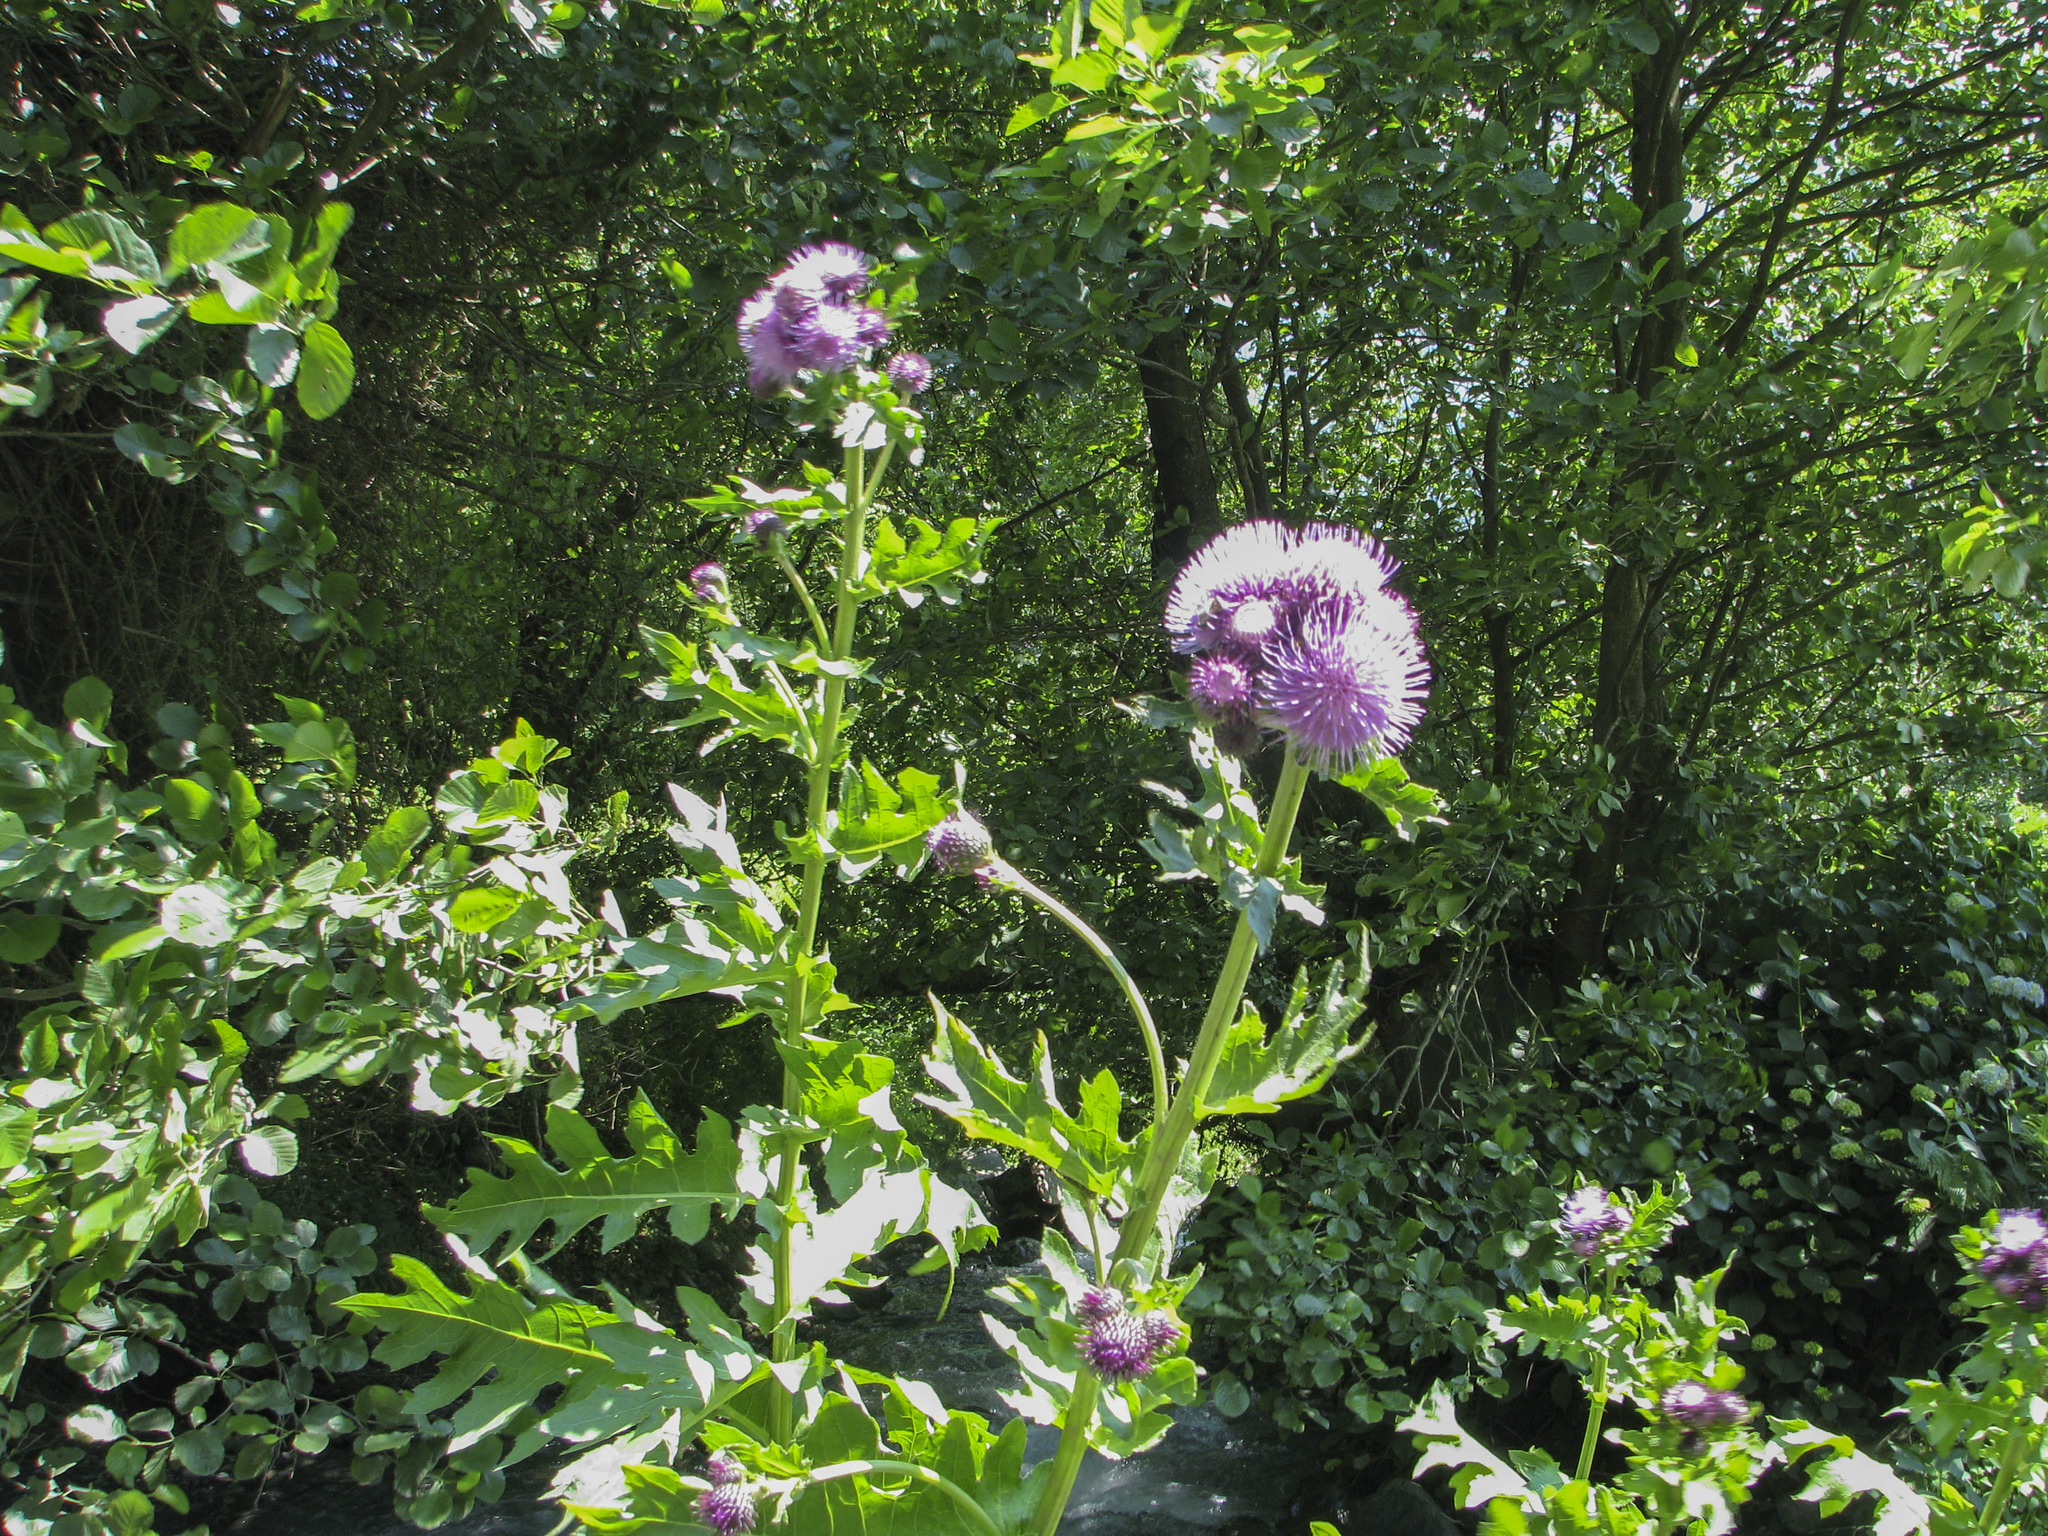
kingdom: Plantae
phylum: Tracheophyta
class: Magnoliopsida
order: Asterales
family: Asteraceae
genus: Cirsium
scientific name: Cirsium sychnosanthum
